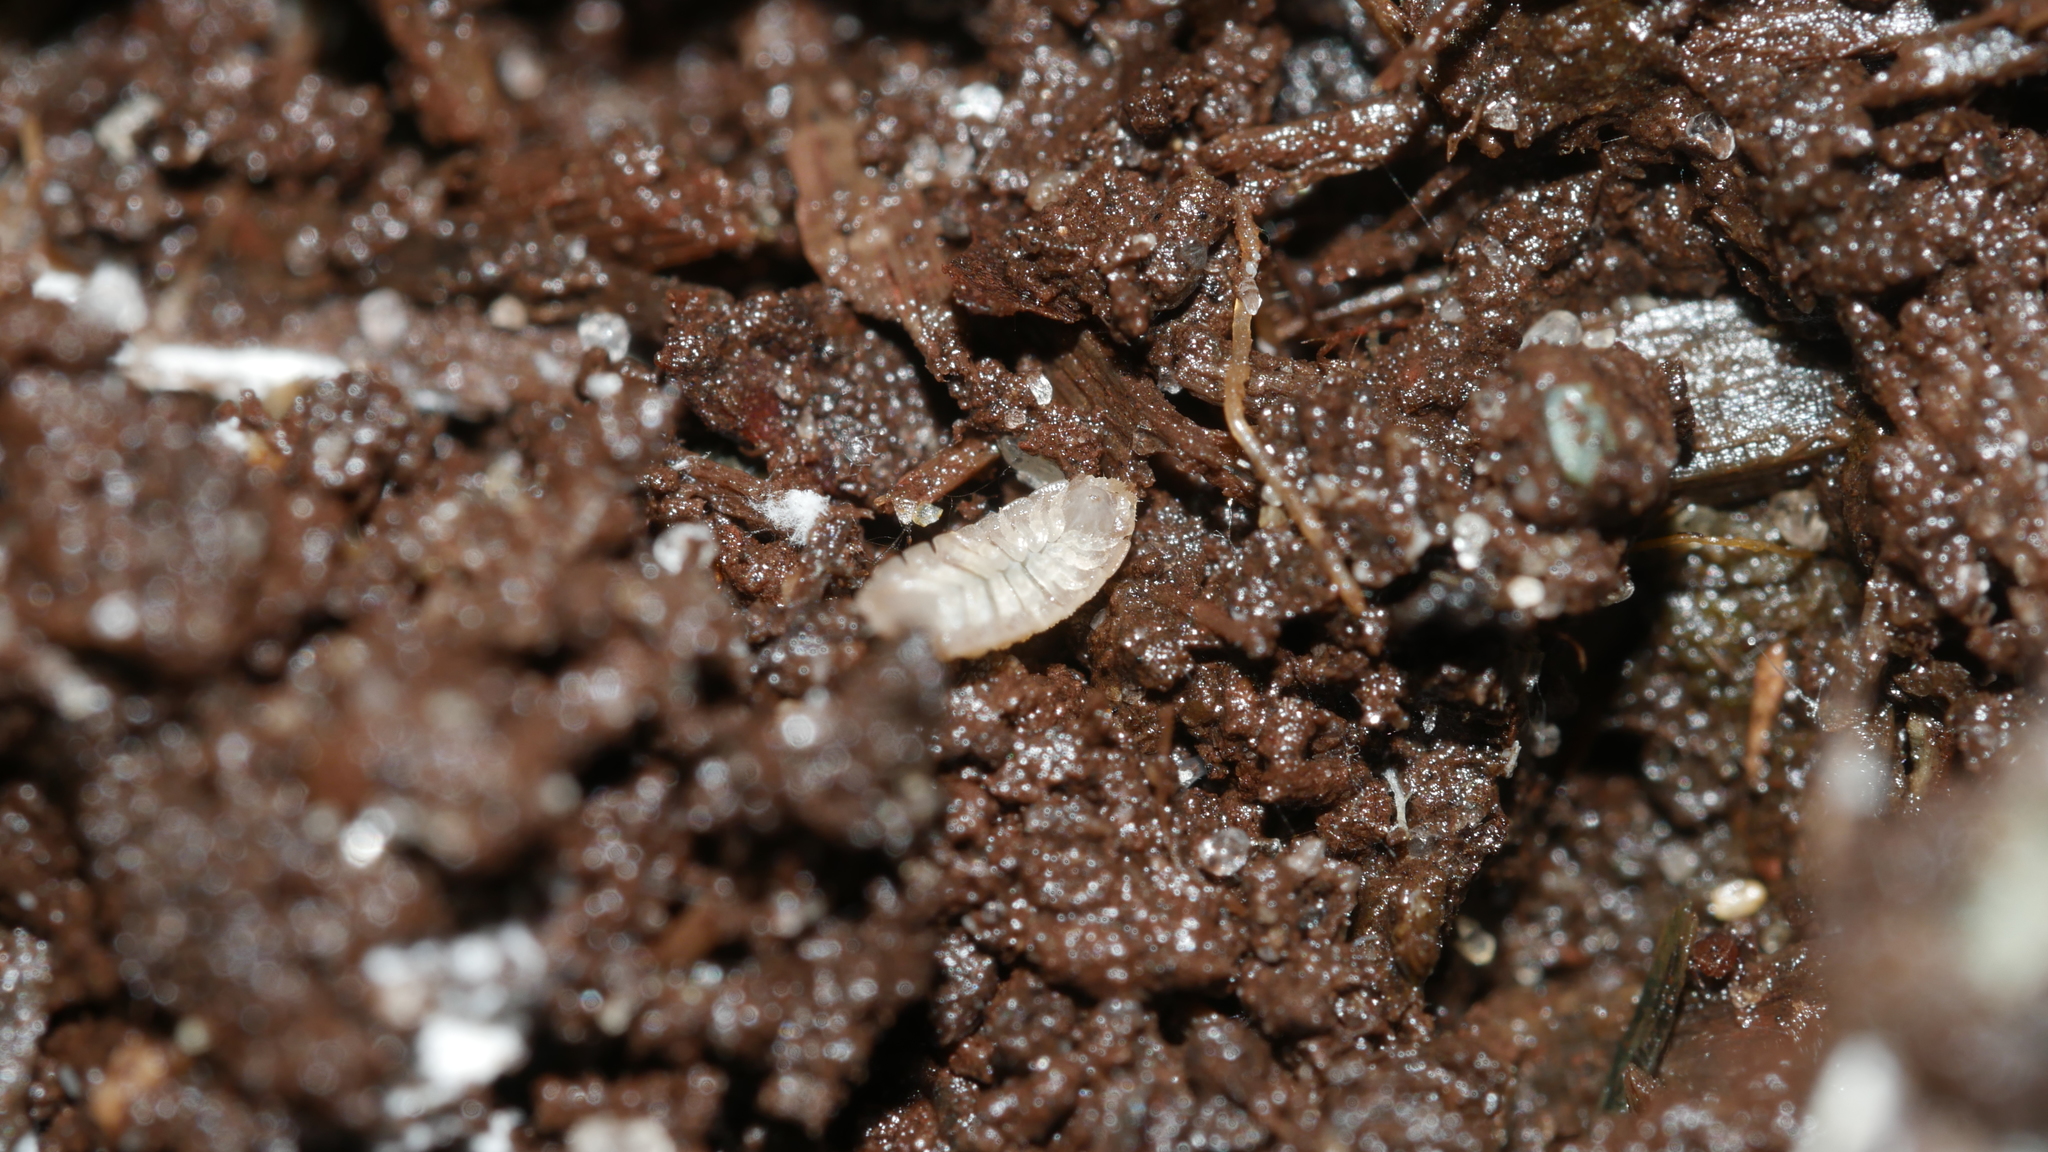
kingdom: Animalia
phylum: Arthropoda
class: Malacostraca
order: Isopoda
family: Trichoniscidae
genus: Haplophthalmus
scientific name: Haplophthalmus danicus
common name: Pillbug
